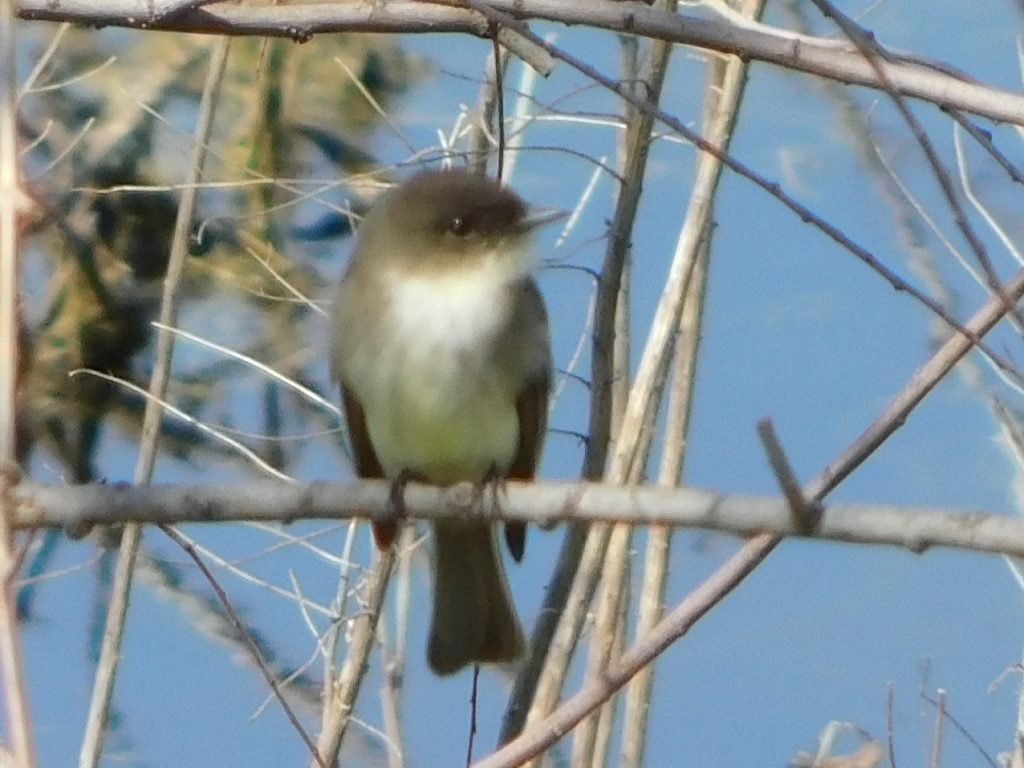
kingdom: Animalia
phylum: Chordata
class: Aves
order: Passeriformes
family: Tyrannidae
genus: Sayornis
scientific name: Sayornis phoebe
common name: Eastern phoebe
